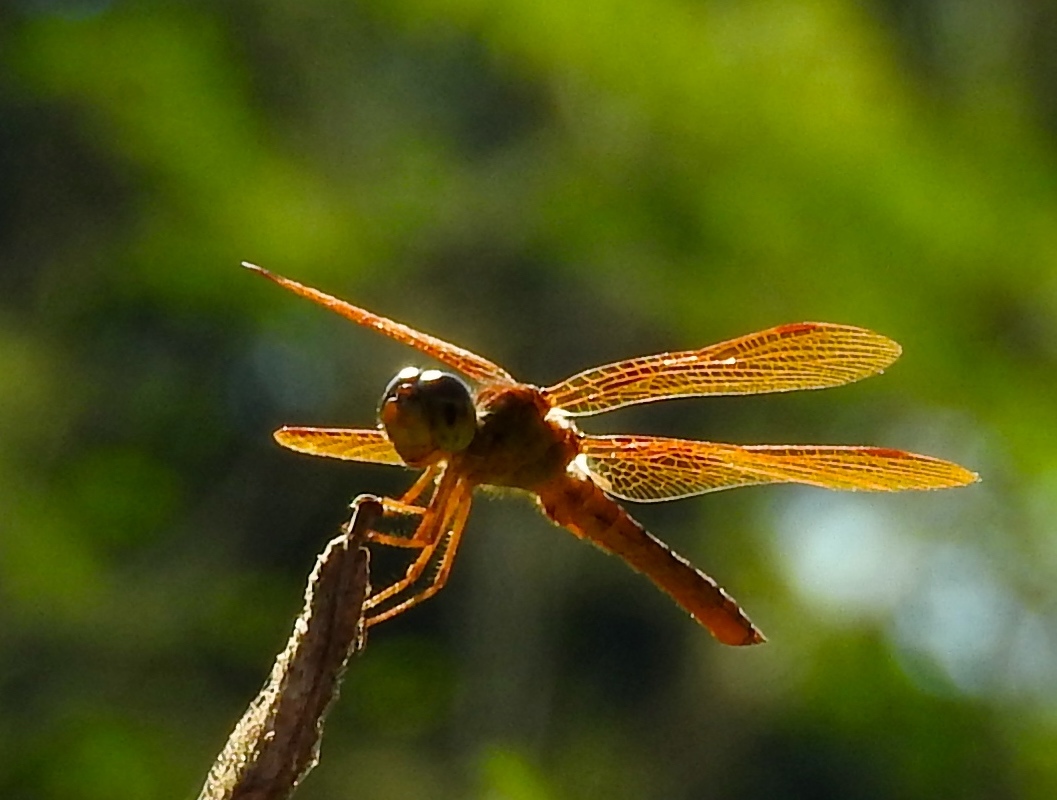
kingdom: Animalia
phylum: Arthropoda
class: Insecta
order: Odonata
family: Libellulidae
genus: Perithemis
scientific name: Perithemis intensa
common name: Mexican amberwing
